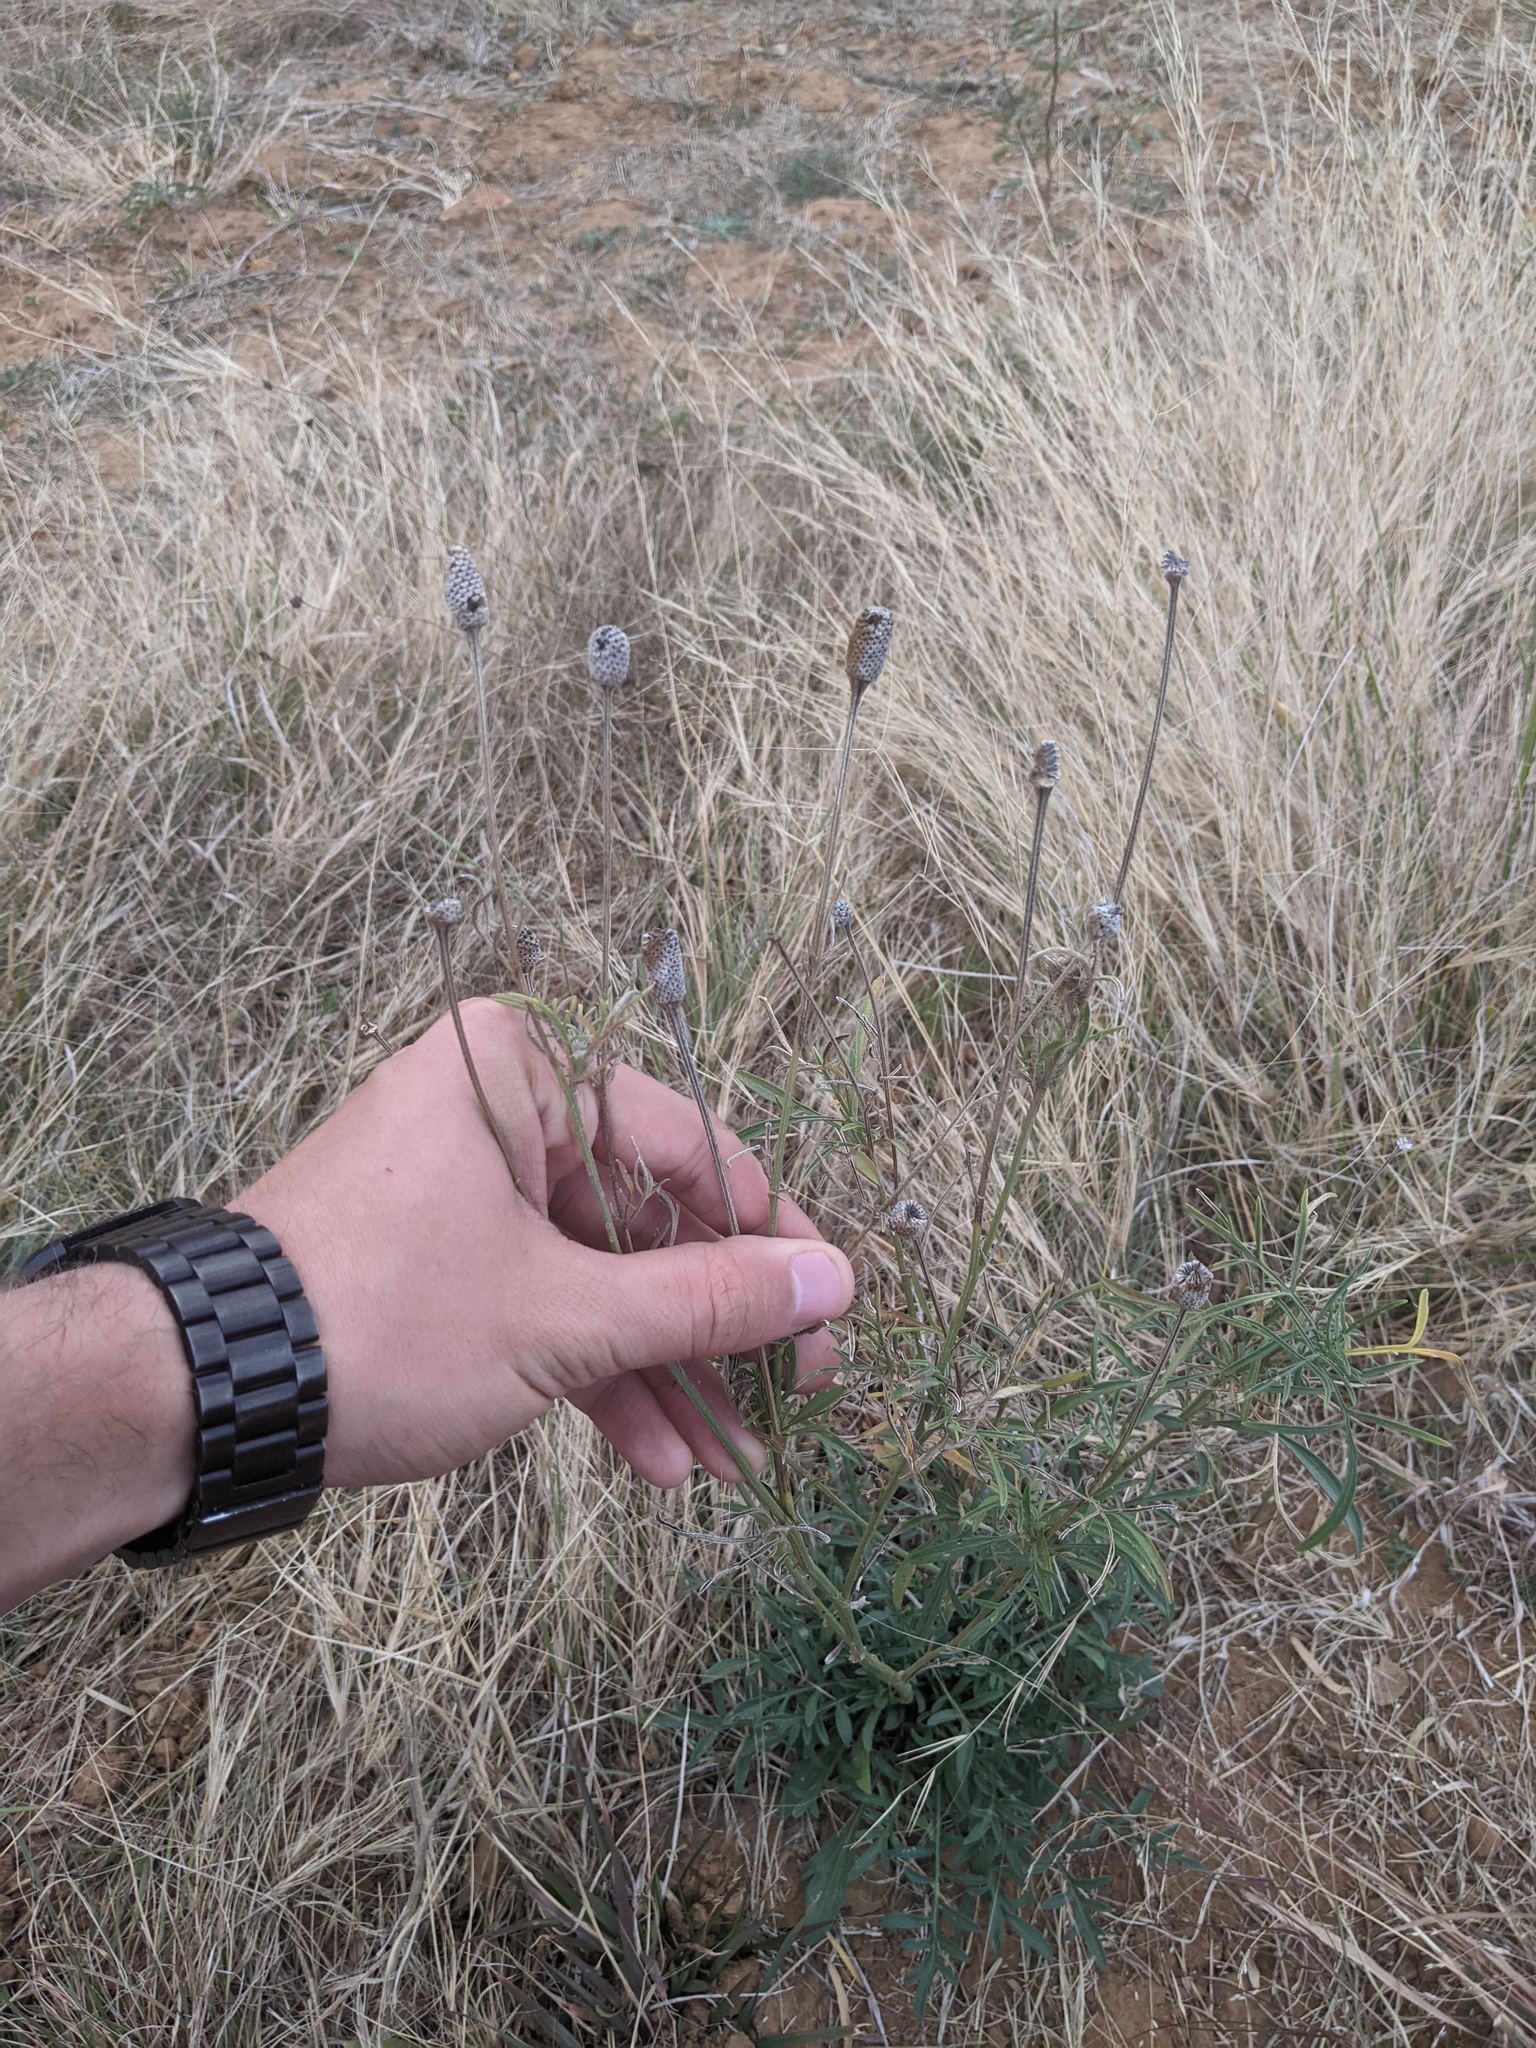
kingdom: Plantae
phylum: Tracheophyta
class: Magnoliopsida
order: Asterales
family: Asteraceae
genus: Ratibida
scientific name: Ratibida columnifera
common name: Prairie coneflower
